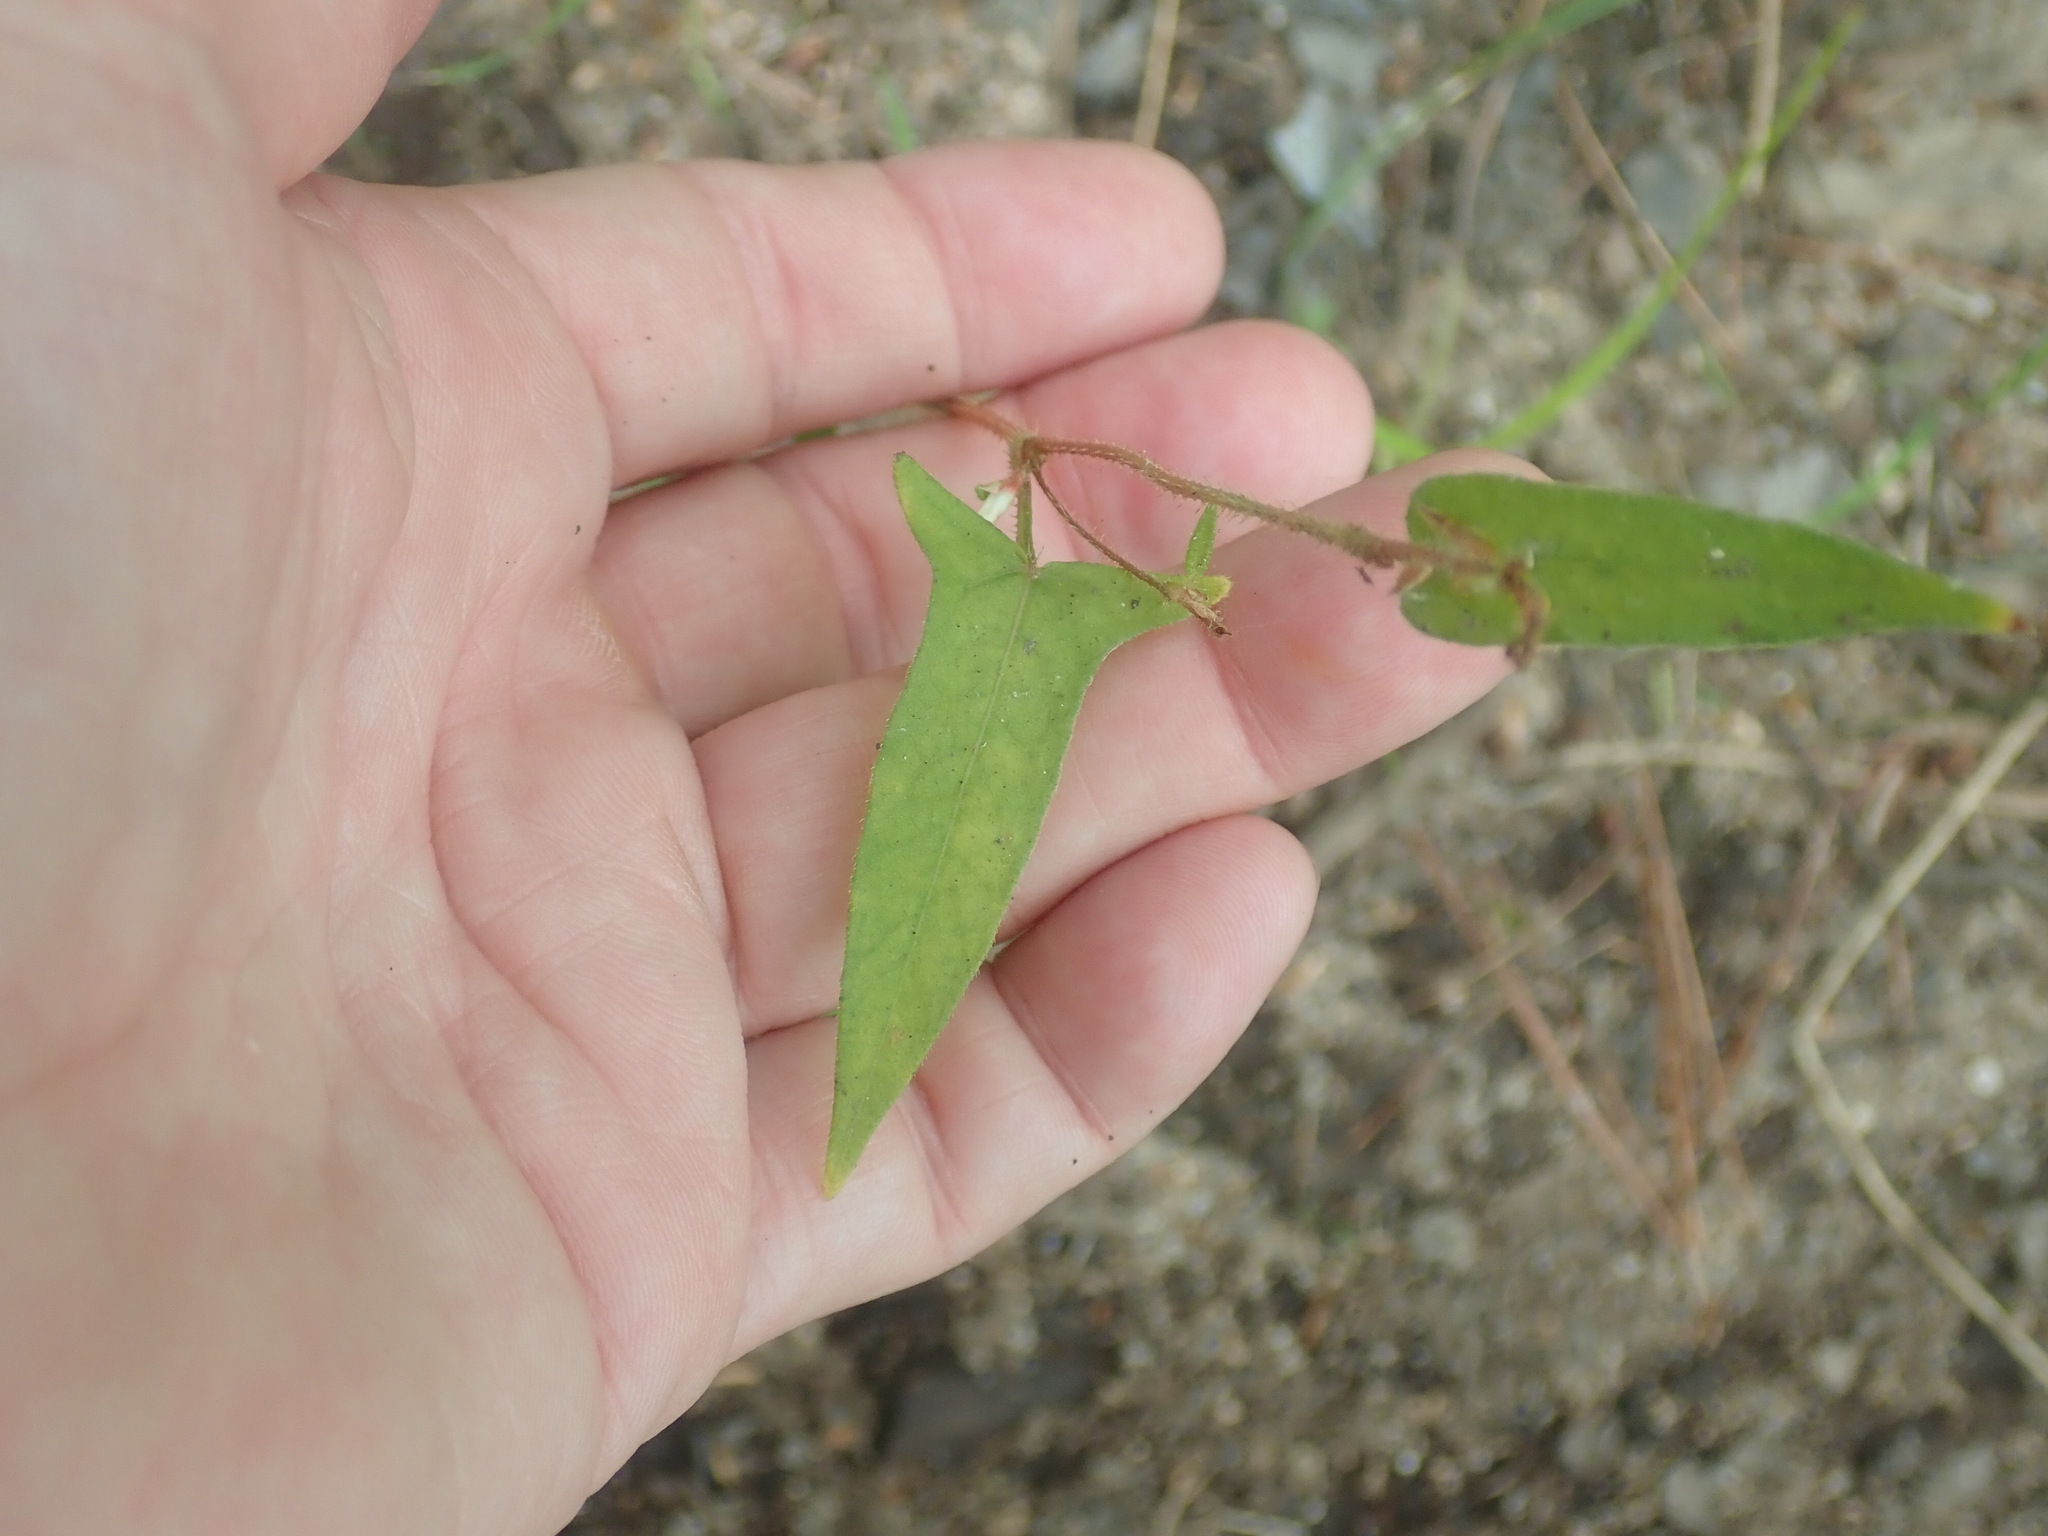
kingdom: Plantae
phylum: Tracheophyta
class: Magnoliopsida
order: Caryophyllales
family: Polygonaceae
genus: Persicaria
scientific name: Persicaria arifolia
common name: Halberd-leaved tear-thumb
